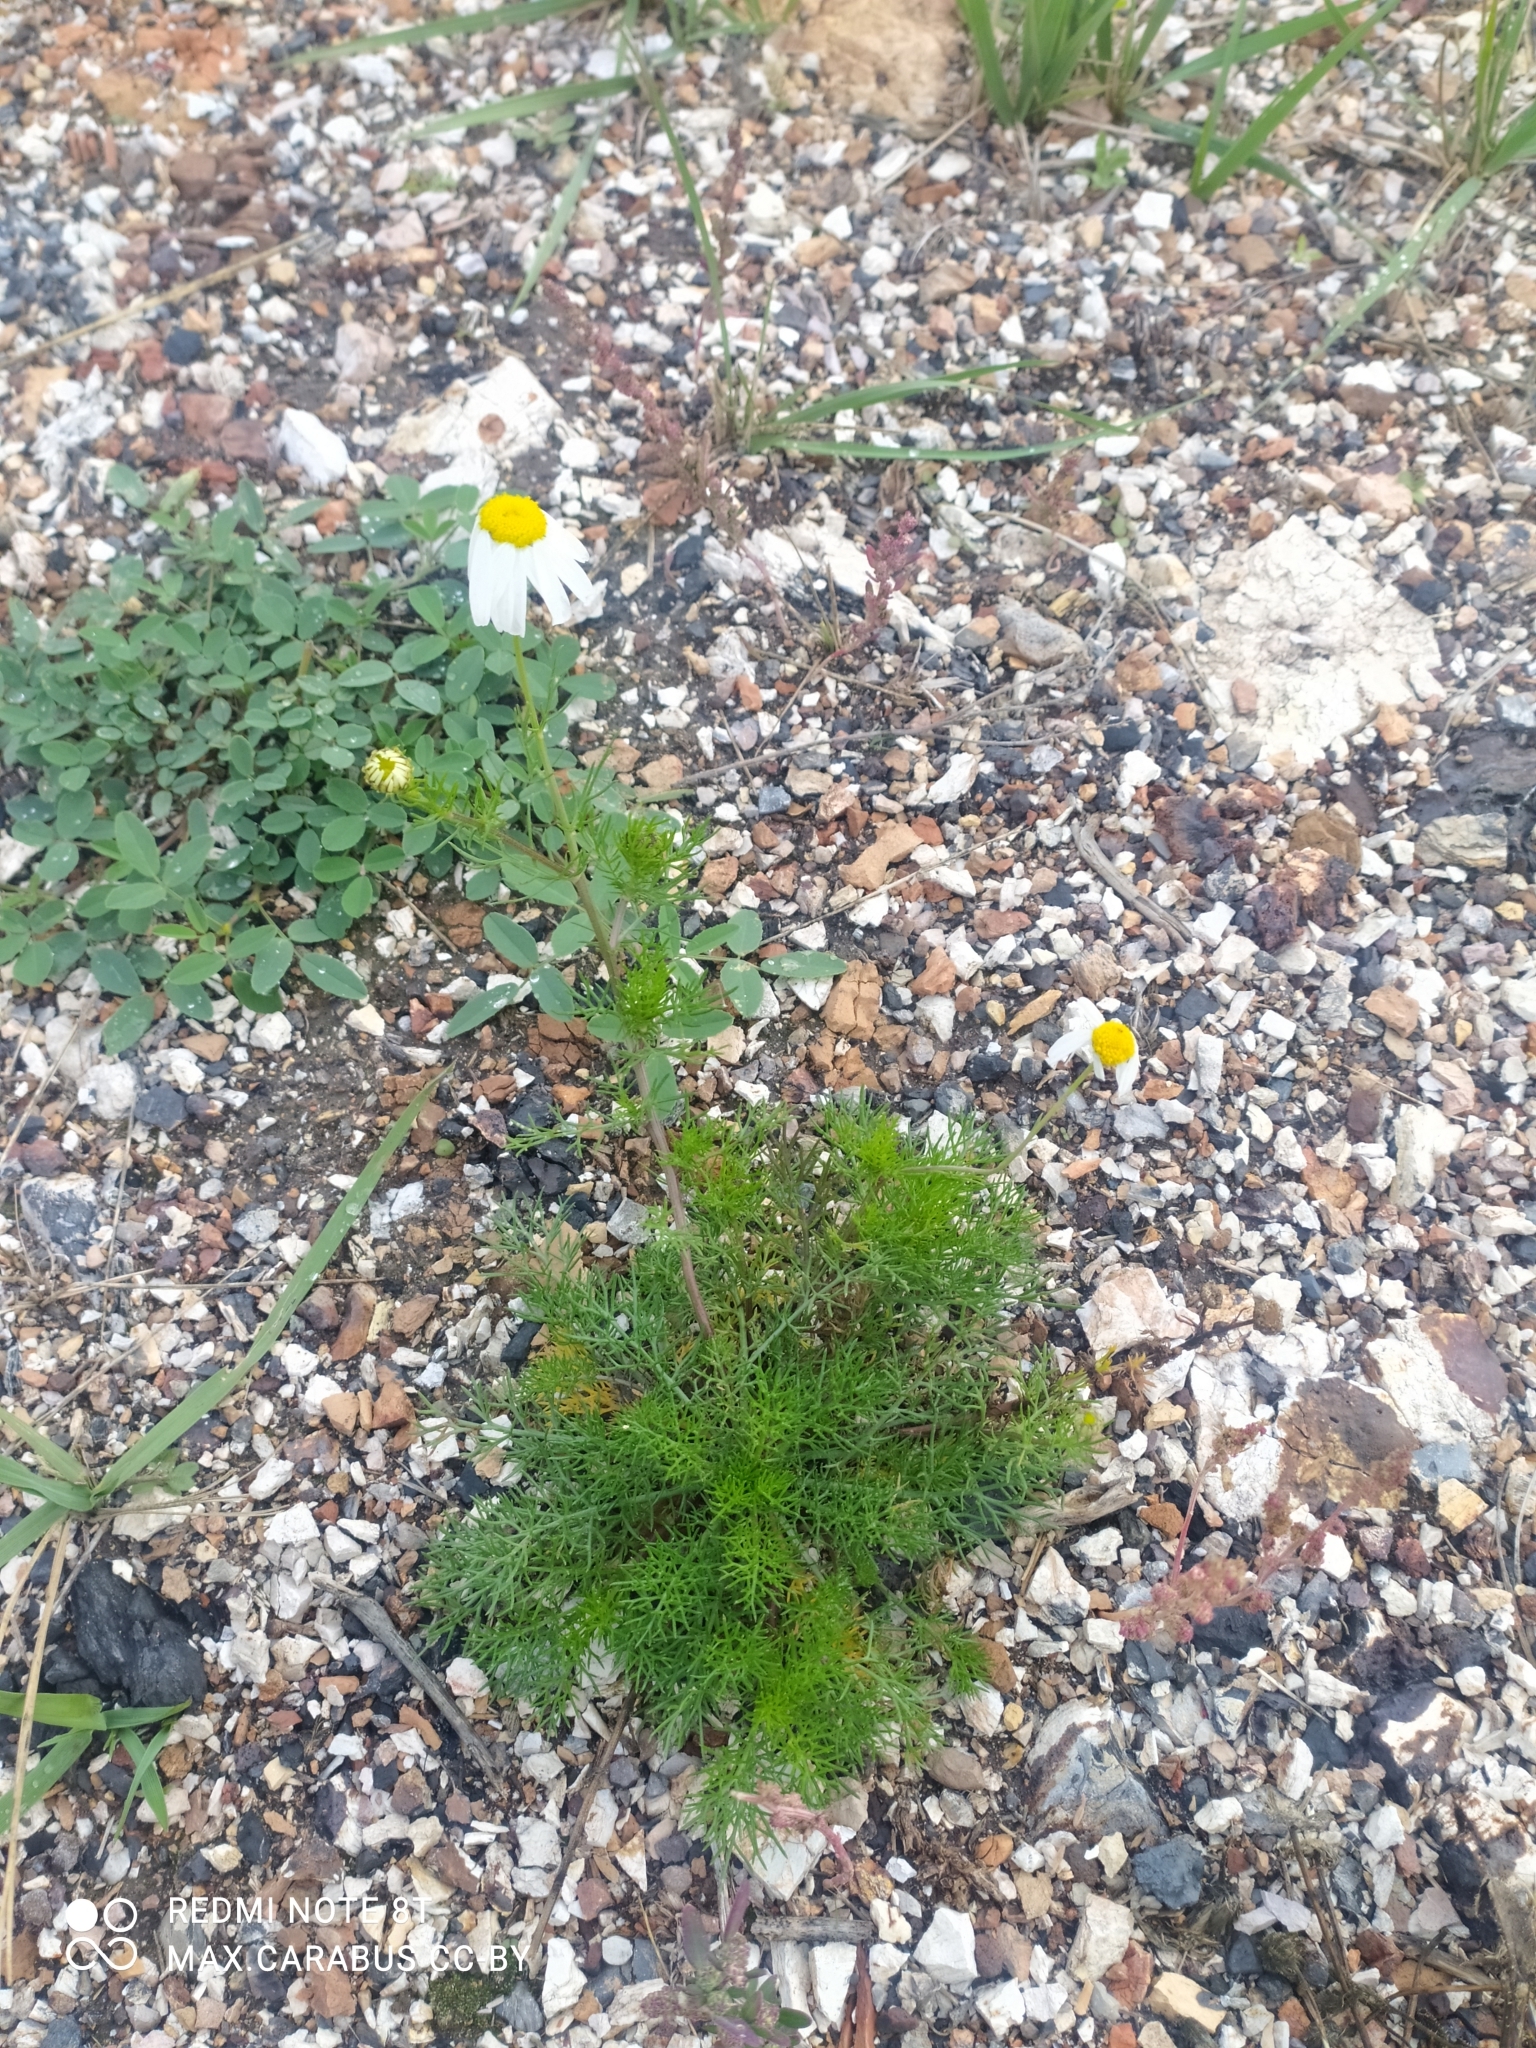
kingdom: Plantae
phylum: Tracheophyta
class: Magnoliopsida
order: Asterales
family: Asteraceae
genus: Tripleurospermum
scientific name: Tripleurospermum inodorum
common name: Scentless mayweed
